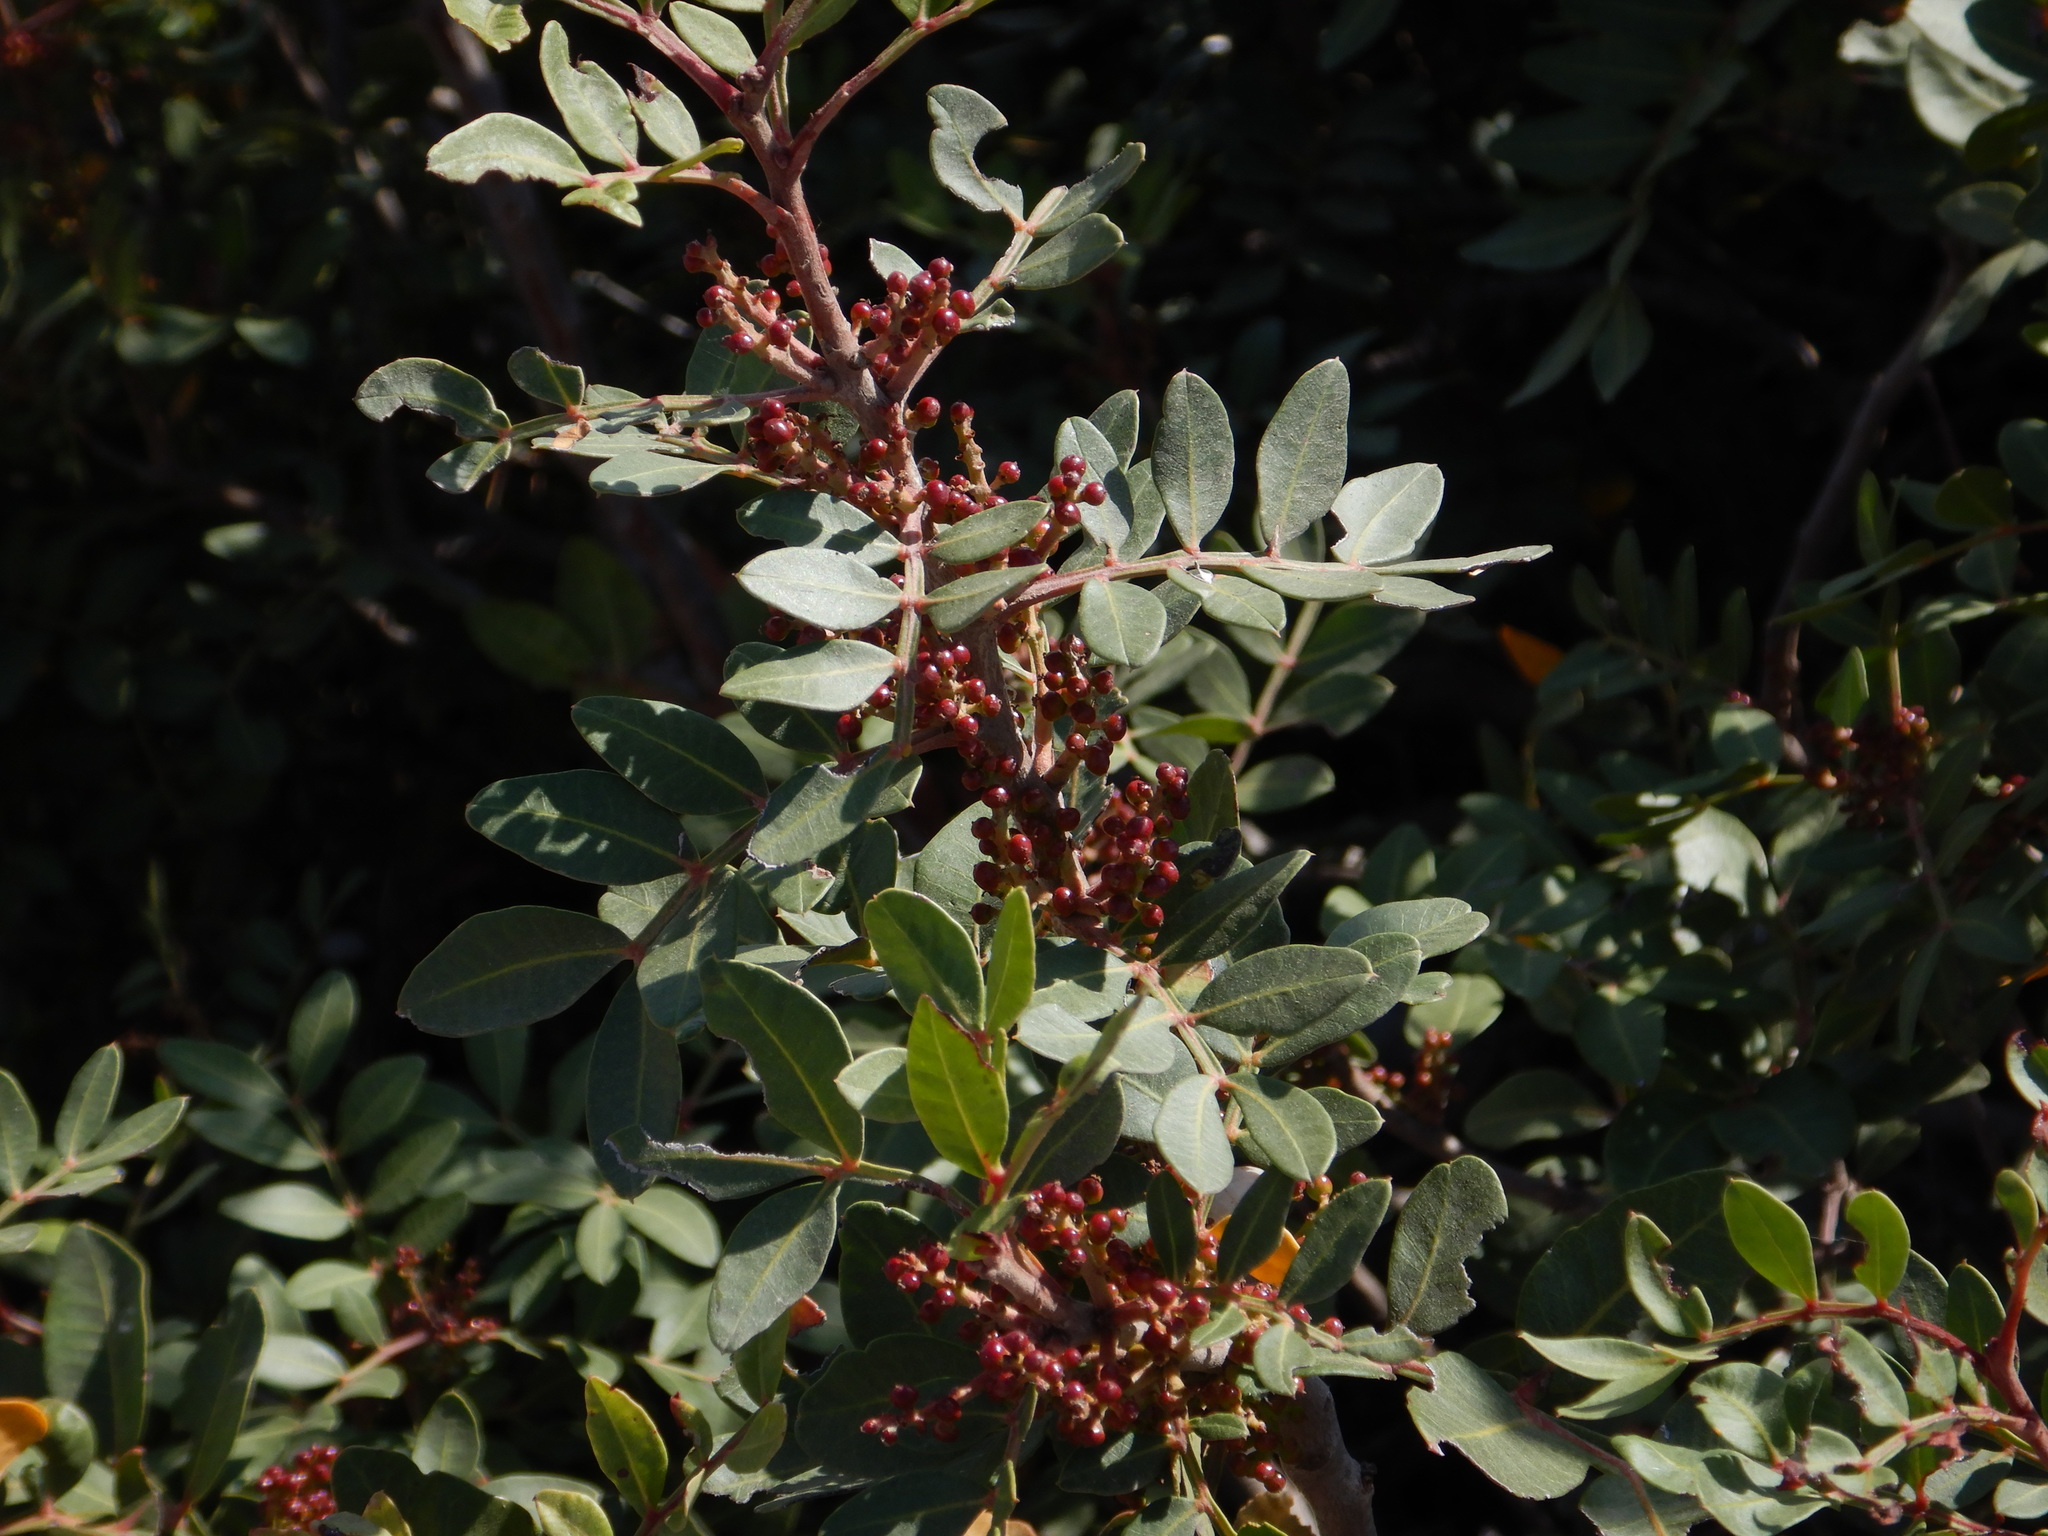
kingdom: Plantae
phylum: Tracheophyta
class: Magnoliopsida
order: Sapindales
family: Anacardiaceae
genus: Pistacia
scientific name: Pistacia lentiscus
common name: Lentisk
